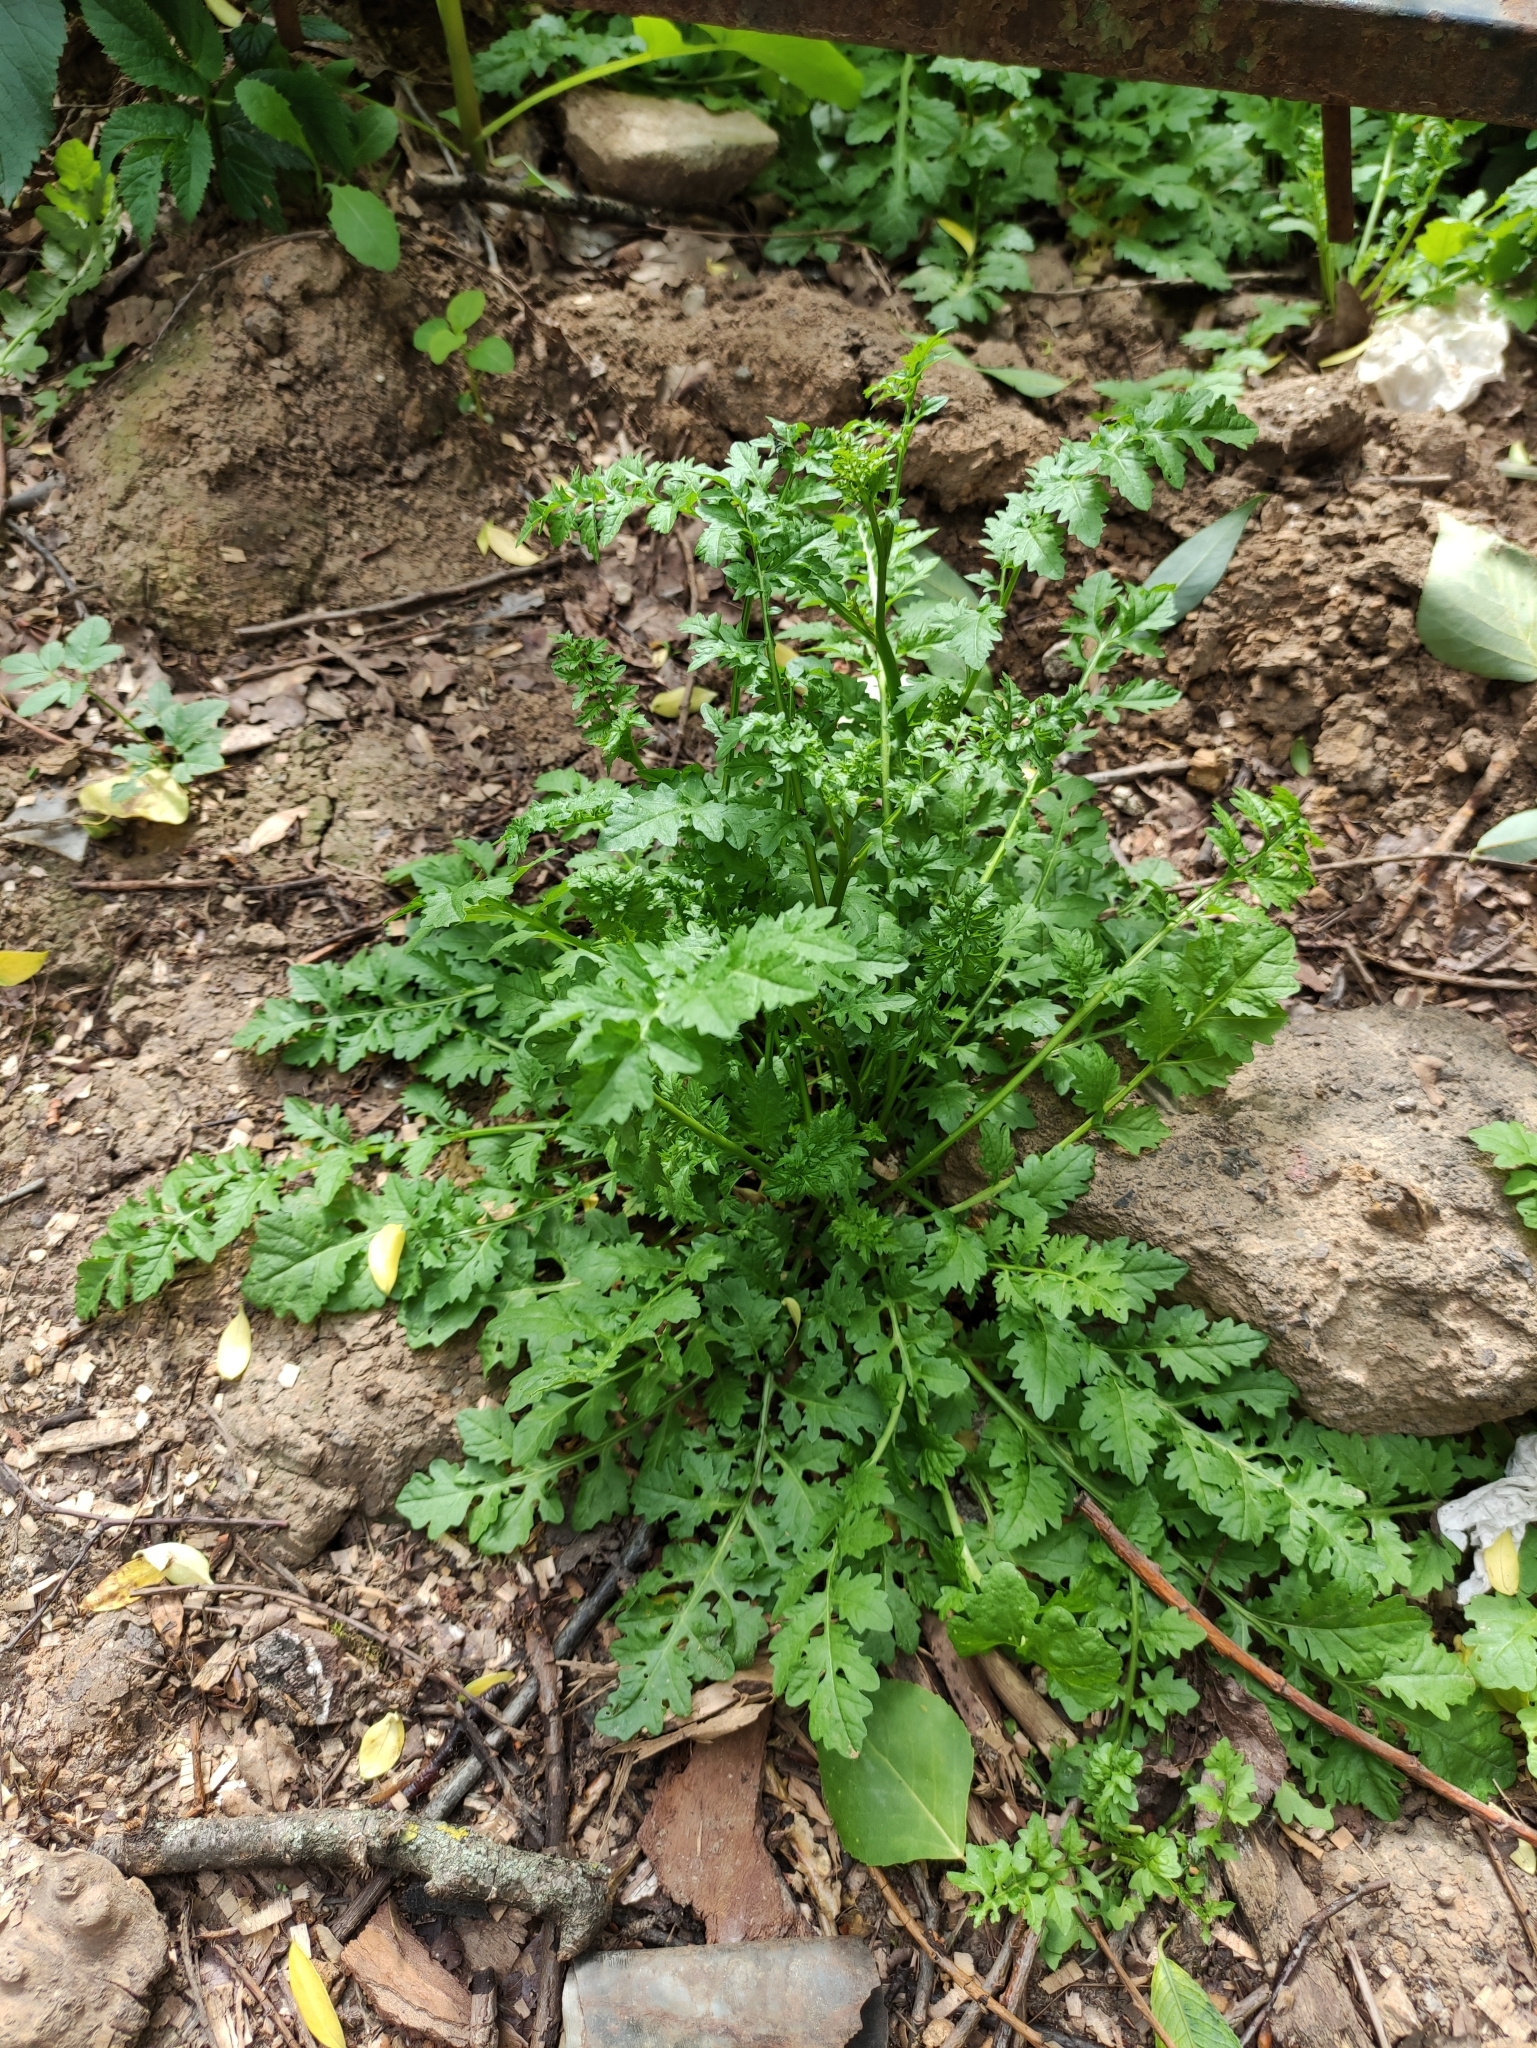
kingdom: Plantae
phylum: Tracheophyta
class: Magnoliopsida
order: Brassicales
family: Brassicaceae
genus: Rorippa
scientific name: Rorippa sylvestris
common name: Creeping yellowcress
